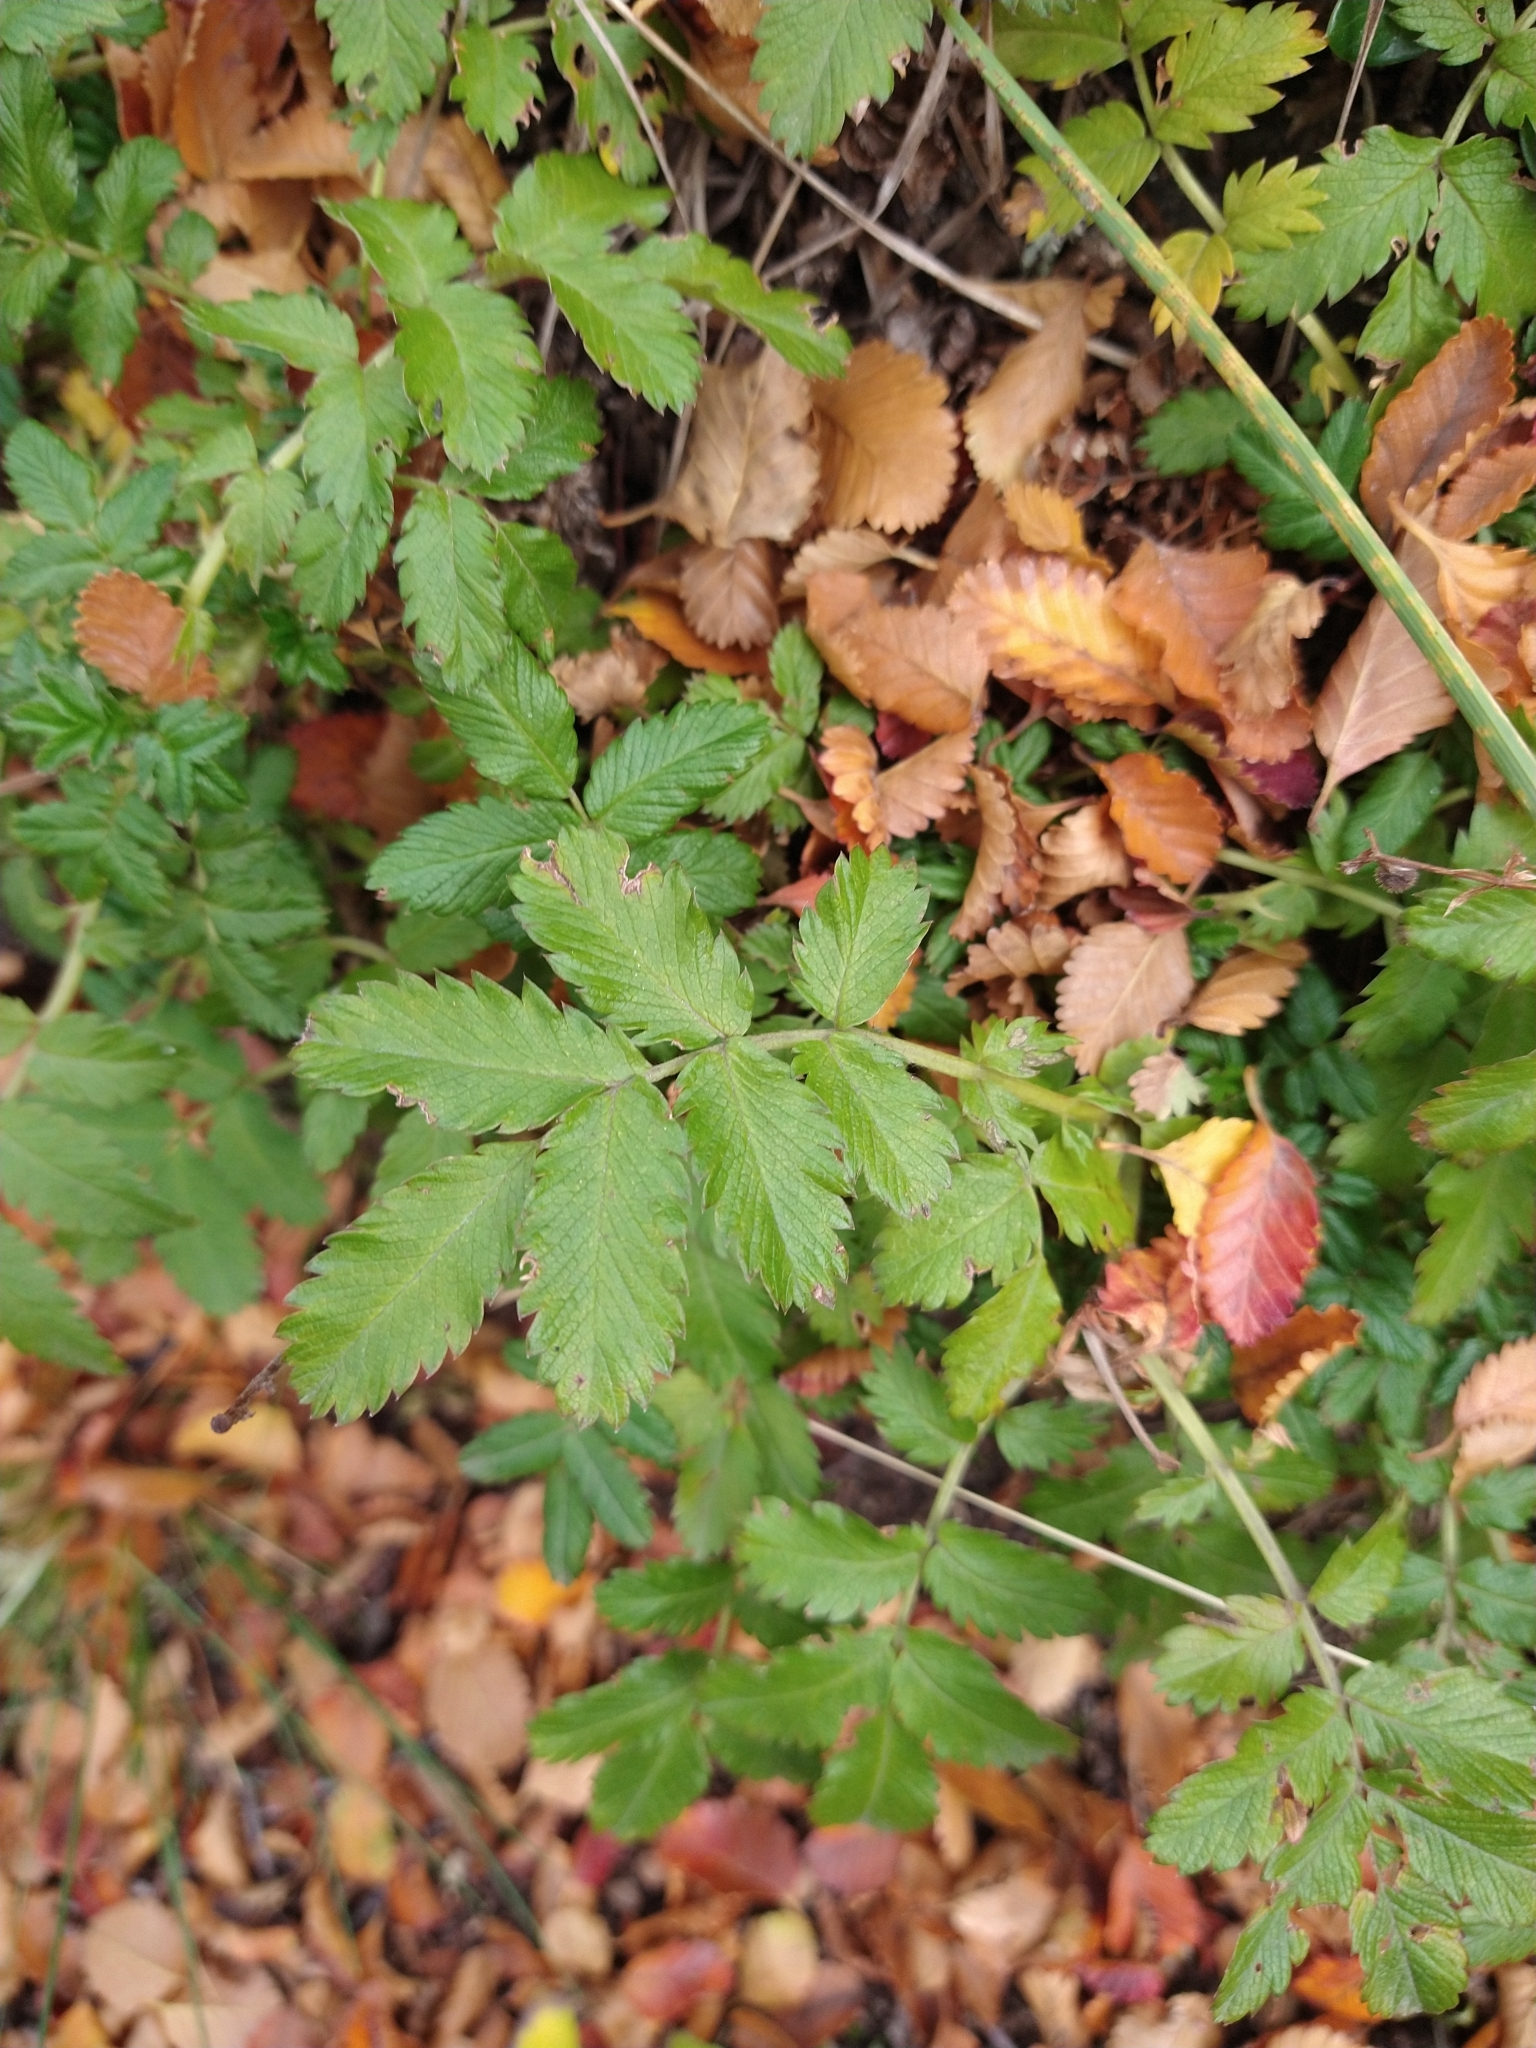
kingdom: Plantae
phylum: Tracheophyta
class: Magnoliopsida
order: Rosales
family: Rosaceae
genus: Acaena
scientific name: Acaena ovalifolia
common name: Two-spined acaena
